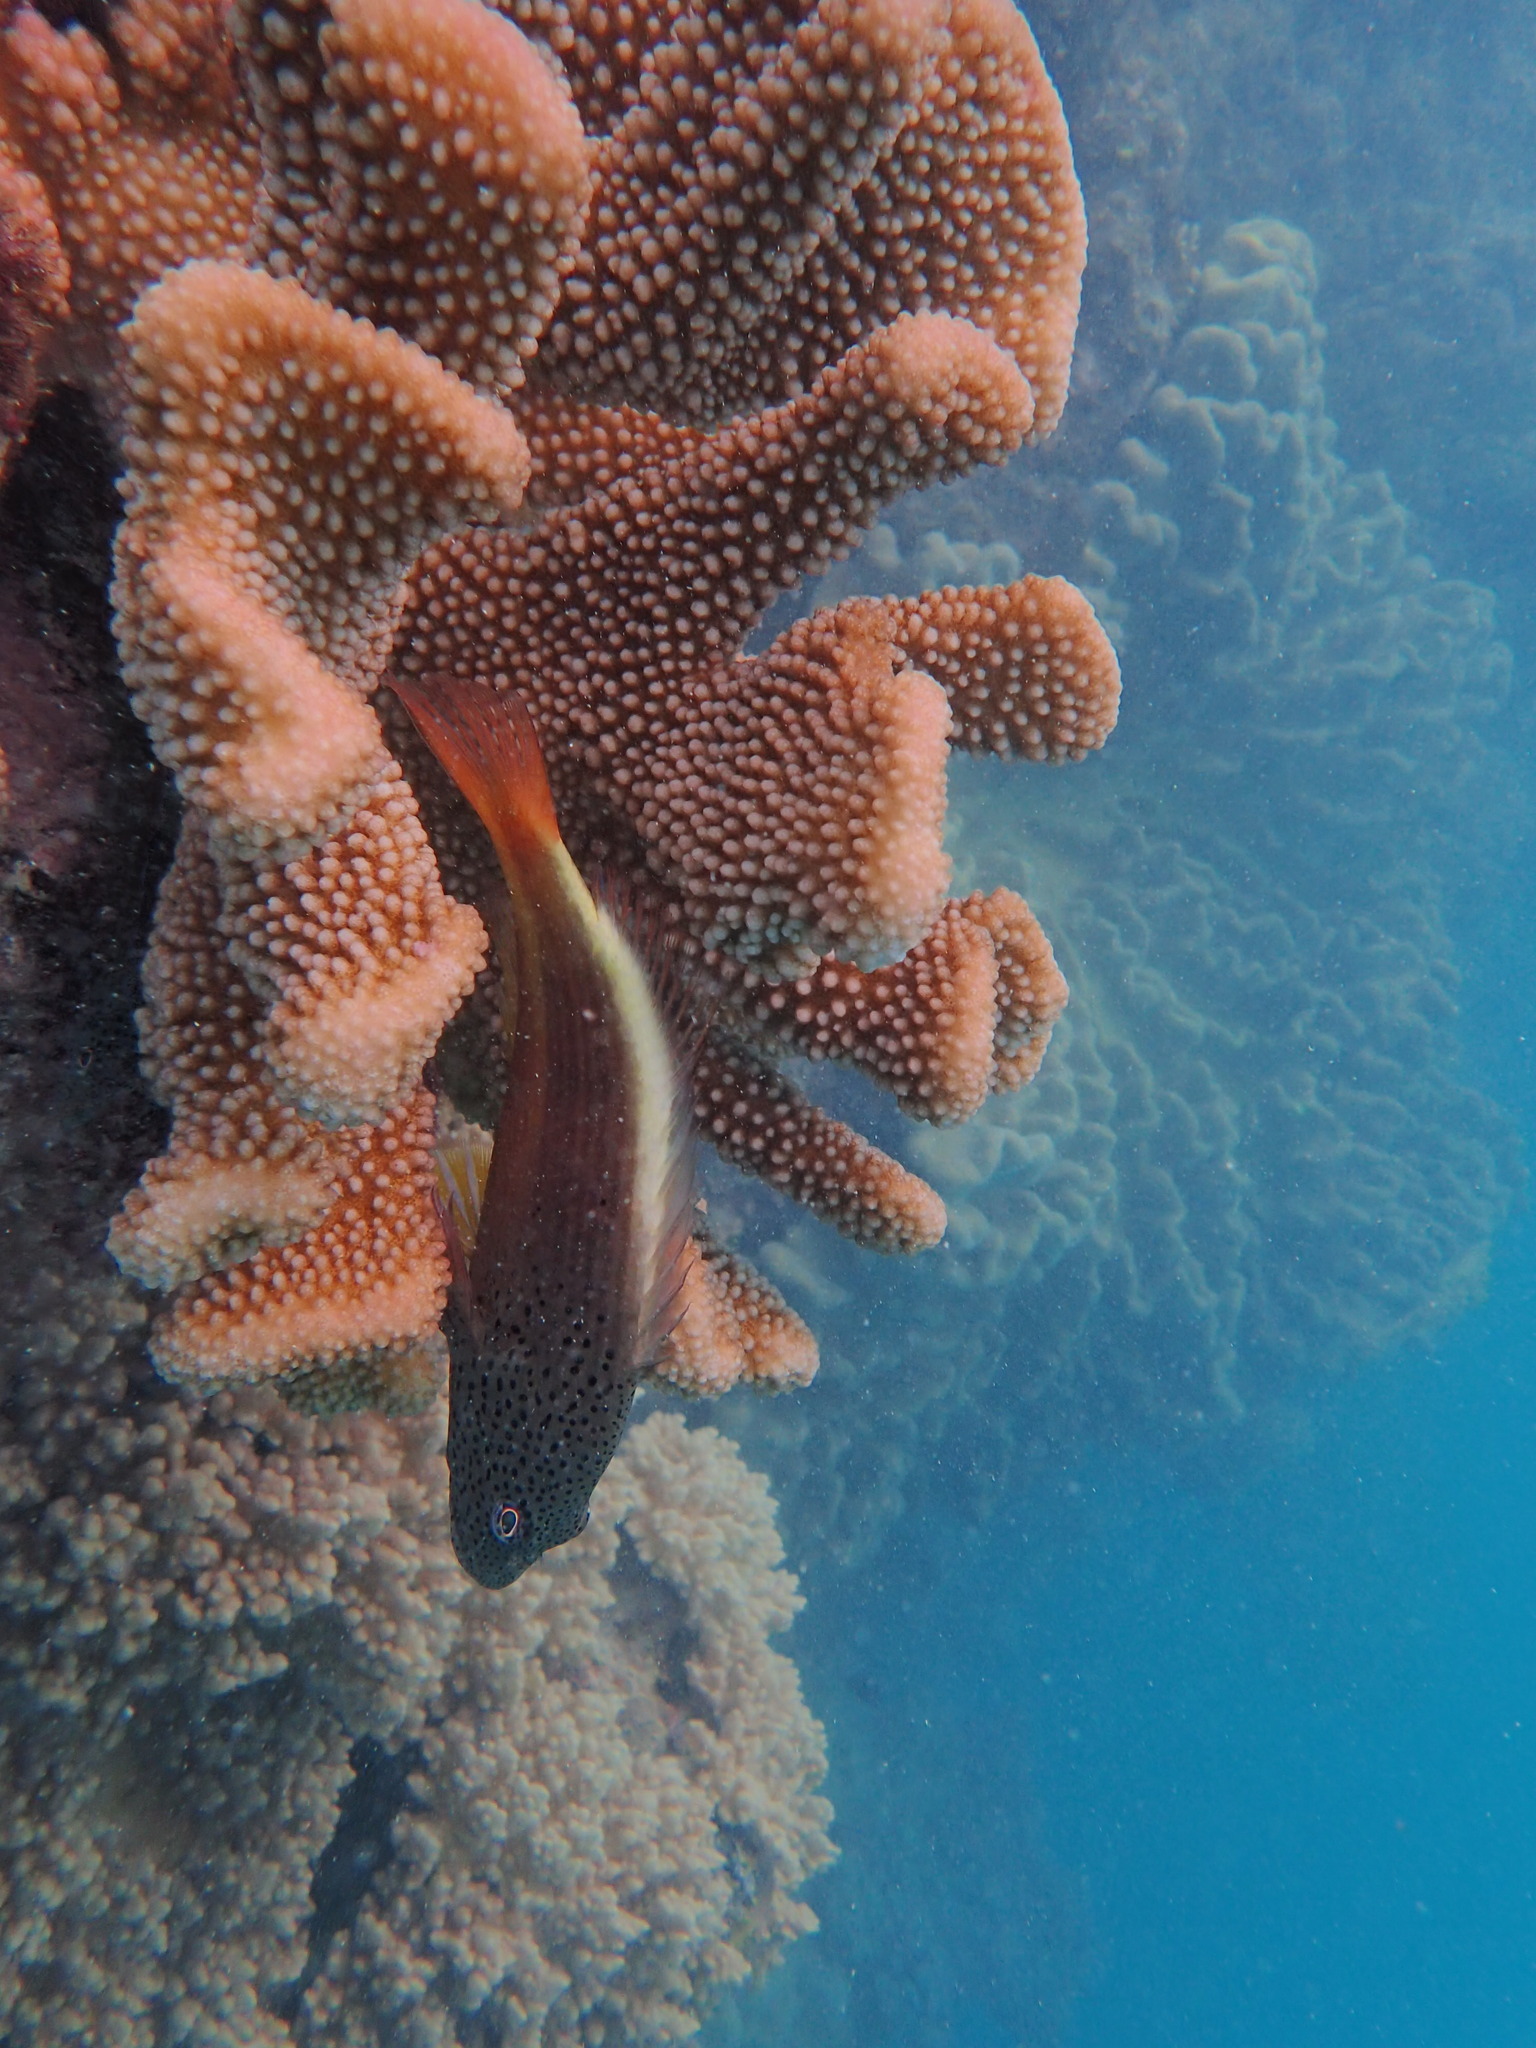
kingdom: Animalia
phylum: Chordata
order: Perciformes
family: Cirrhitidae
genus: Paracirrhites
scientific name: Paracirrhites forsteri
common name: Freckled hawkfish
